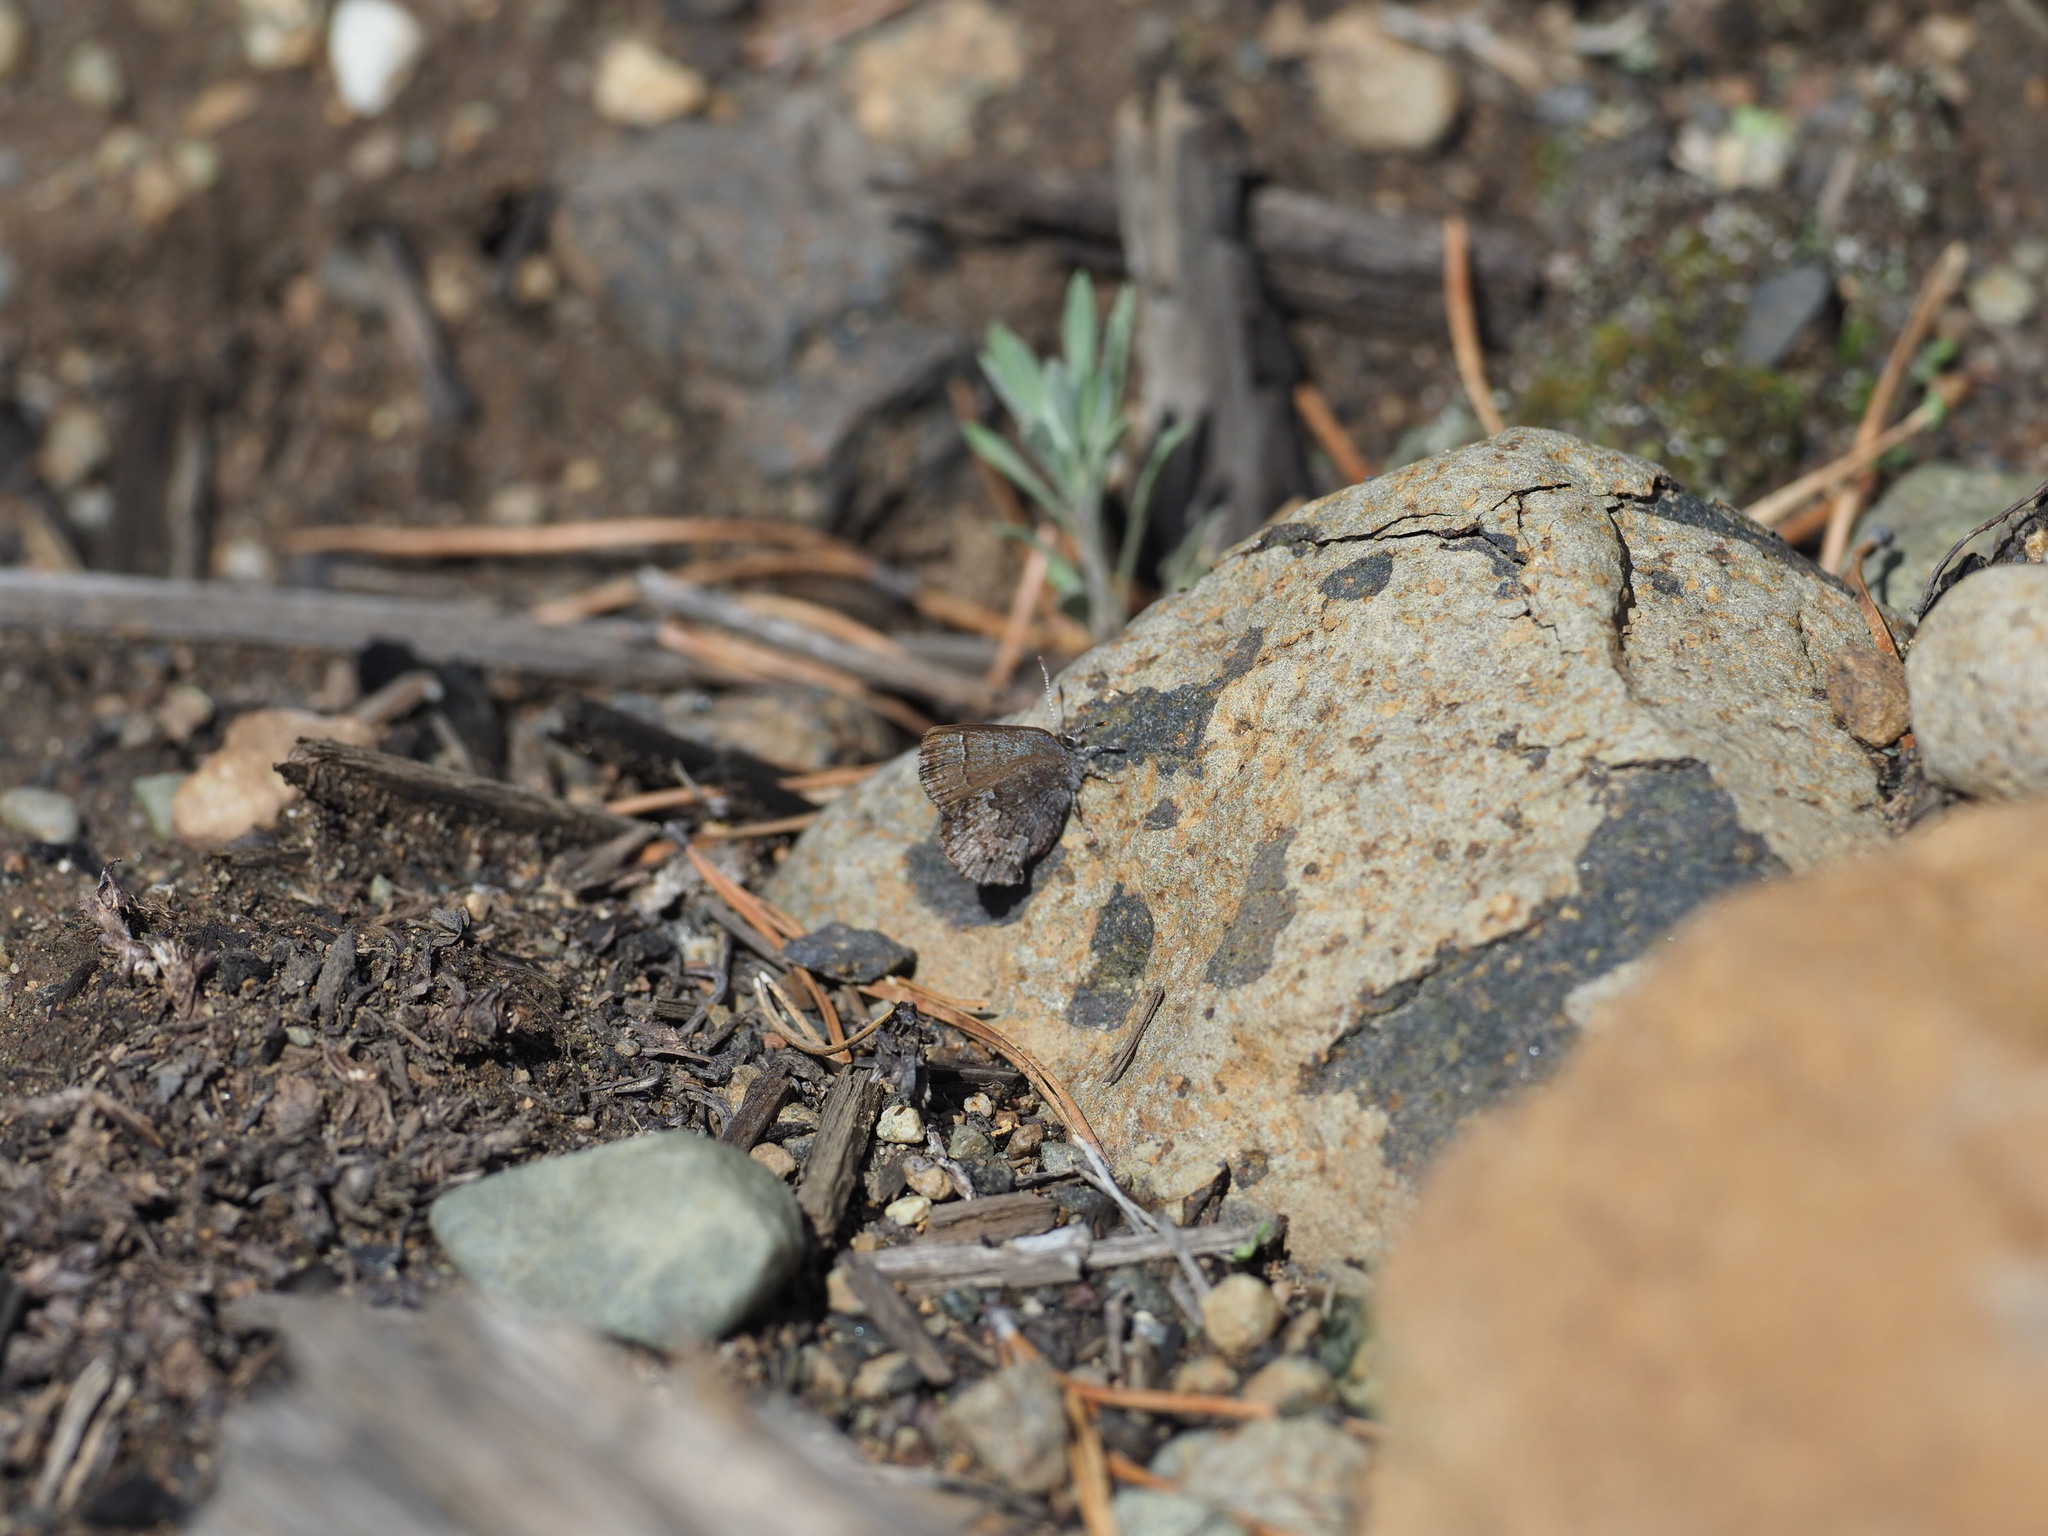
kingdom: Animalia
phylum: Arthropoda
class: Insecta
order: Lepidoptera
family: Lycaenidae
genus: Callophrys
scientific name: Callophrys polios
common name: Hoary elfin
